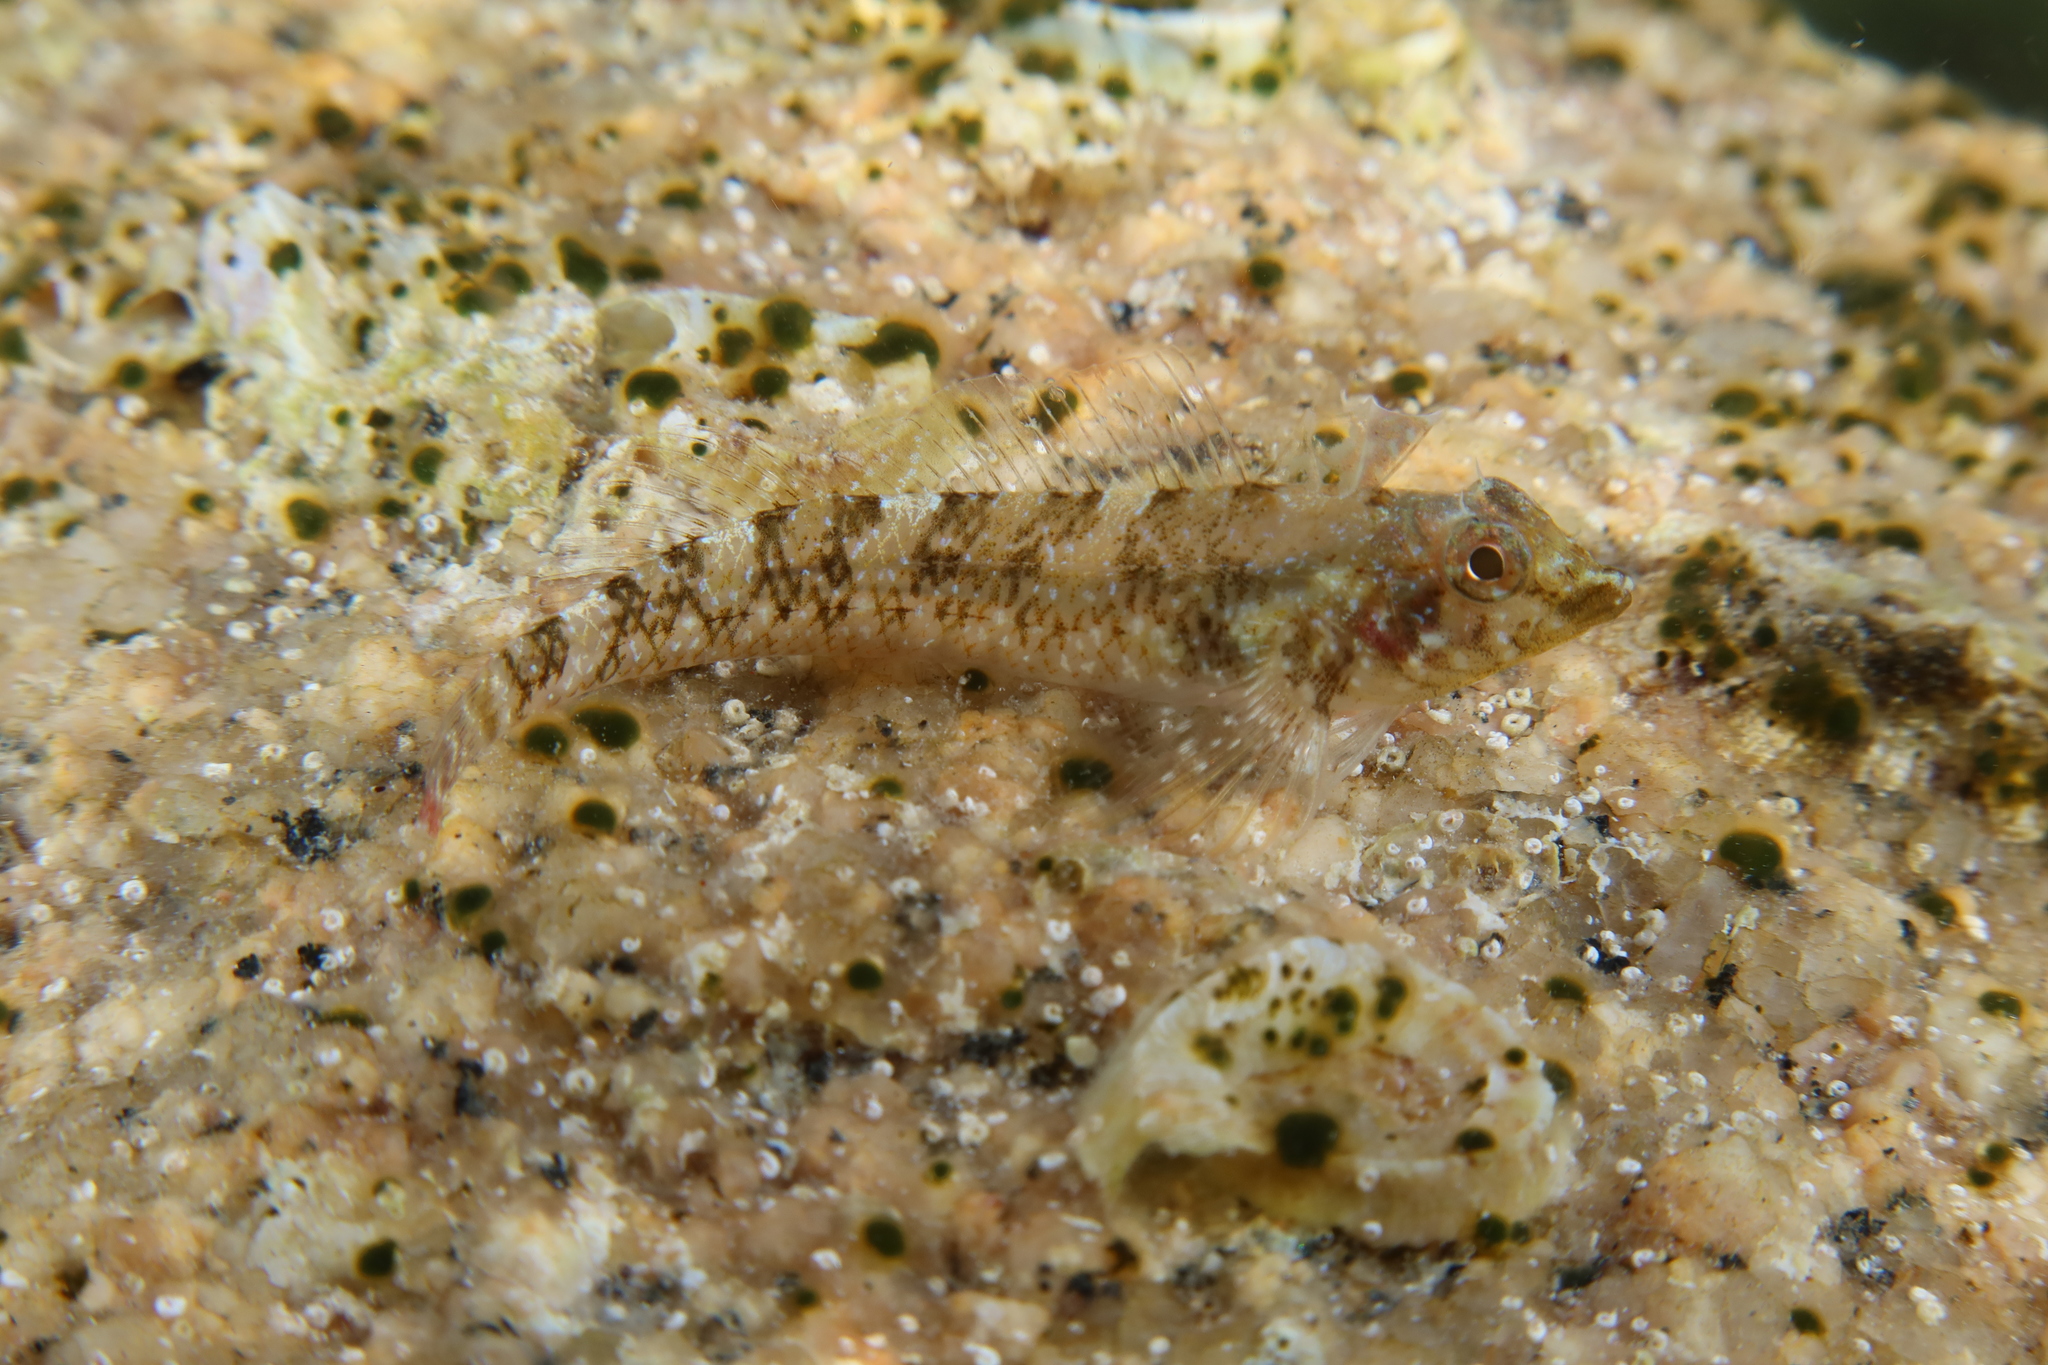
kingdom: Animalia
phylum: Chordata
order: Perciformes
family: Tripterygiidae
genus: Tripterygion
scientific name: Tripterygion tripteronotum
